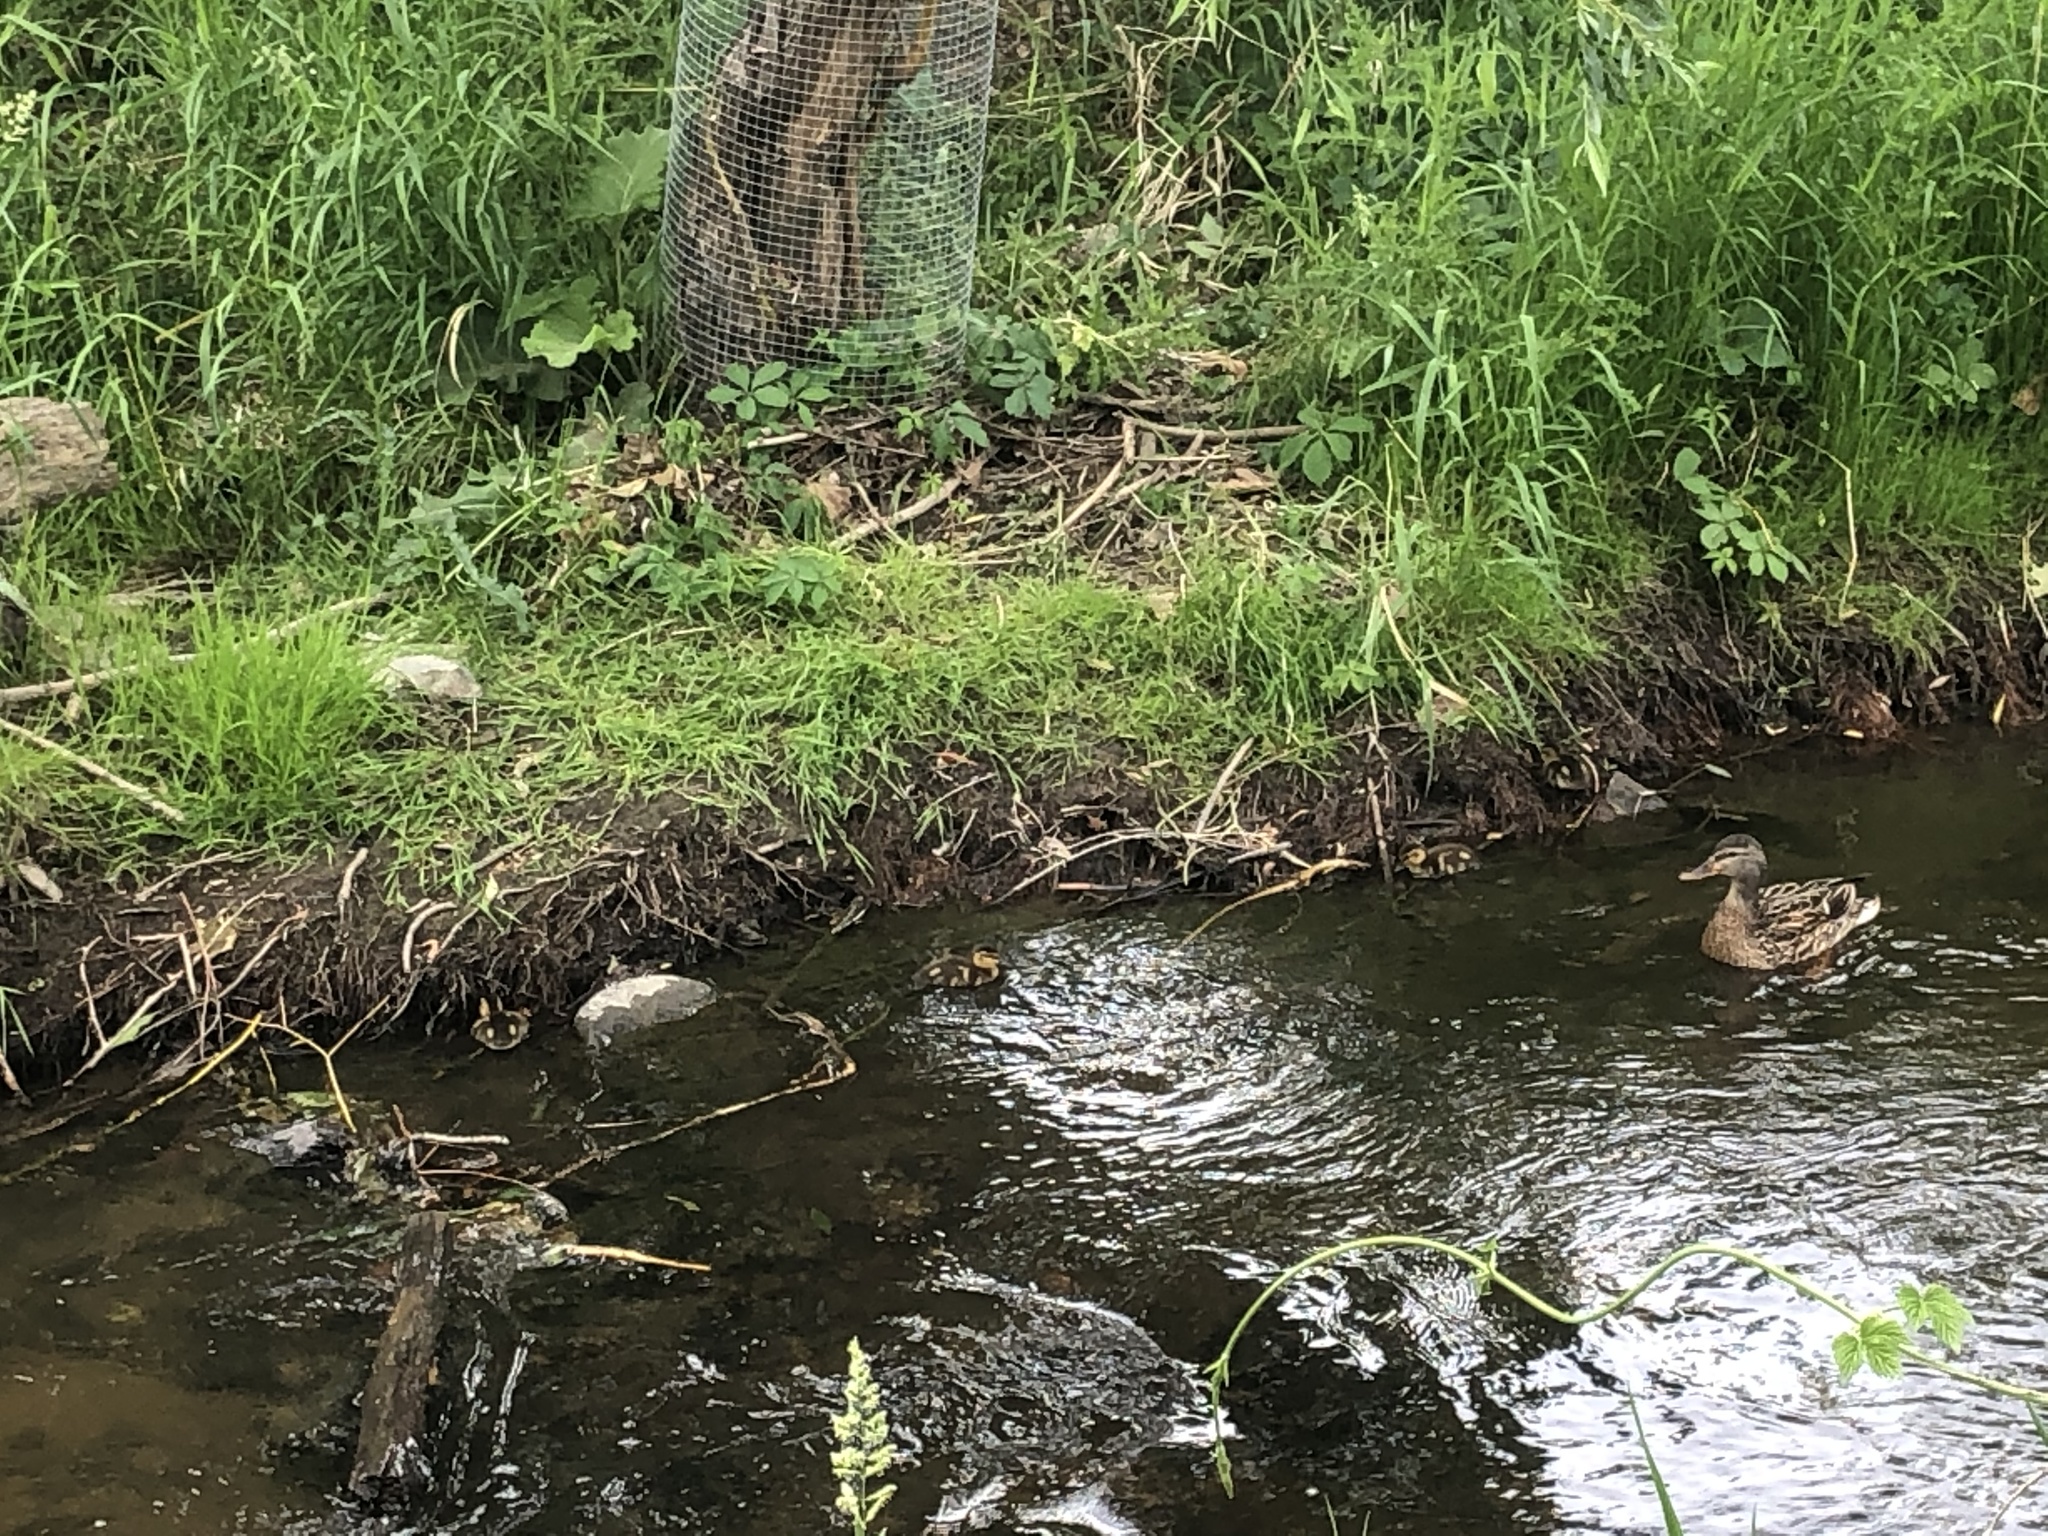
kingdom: Animalia
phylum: Chordata
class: Aves
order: Anseriformes
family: Anatidae
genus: Anas
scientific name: Anas platyrhynchos
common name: Mallard
